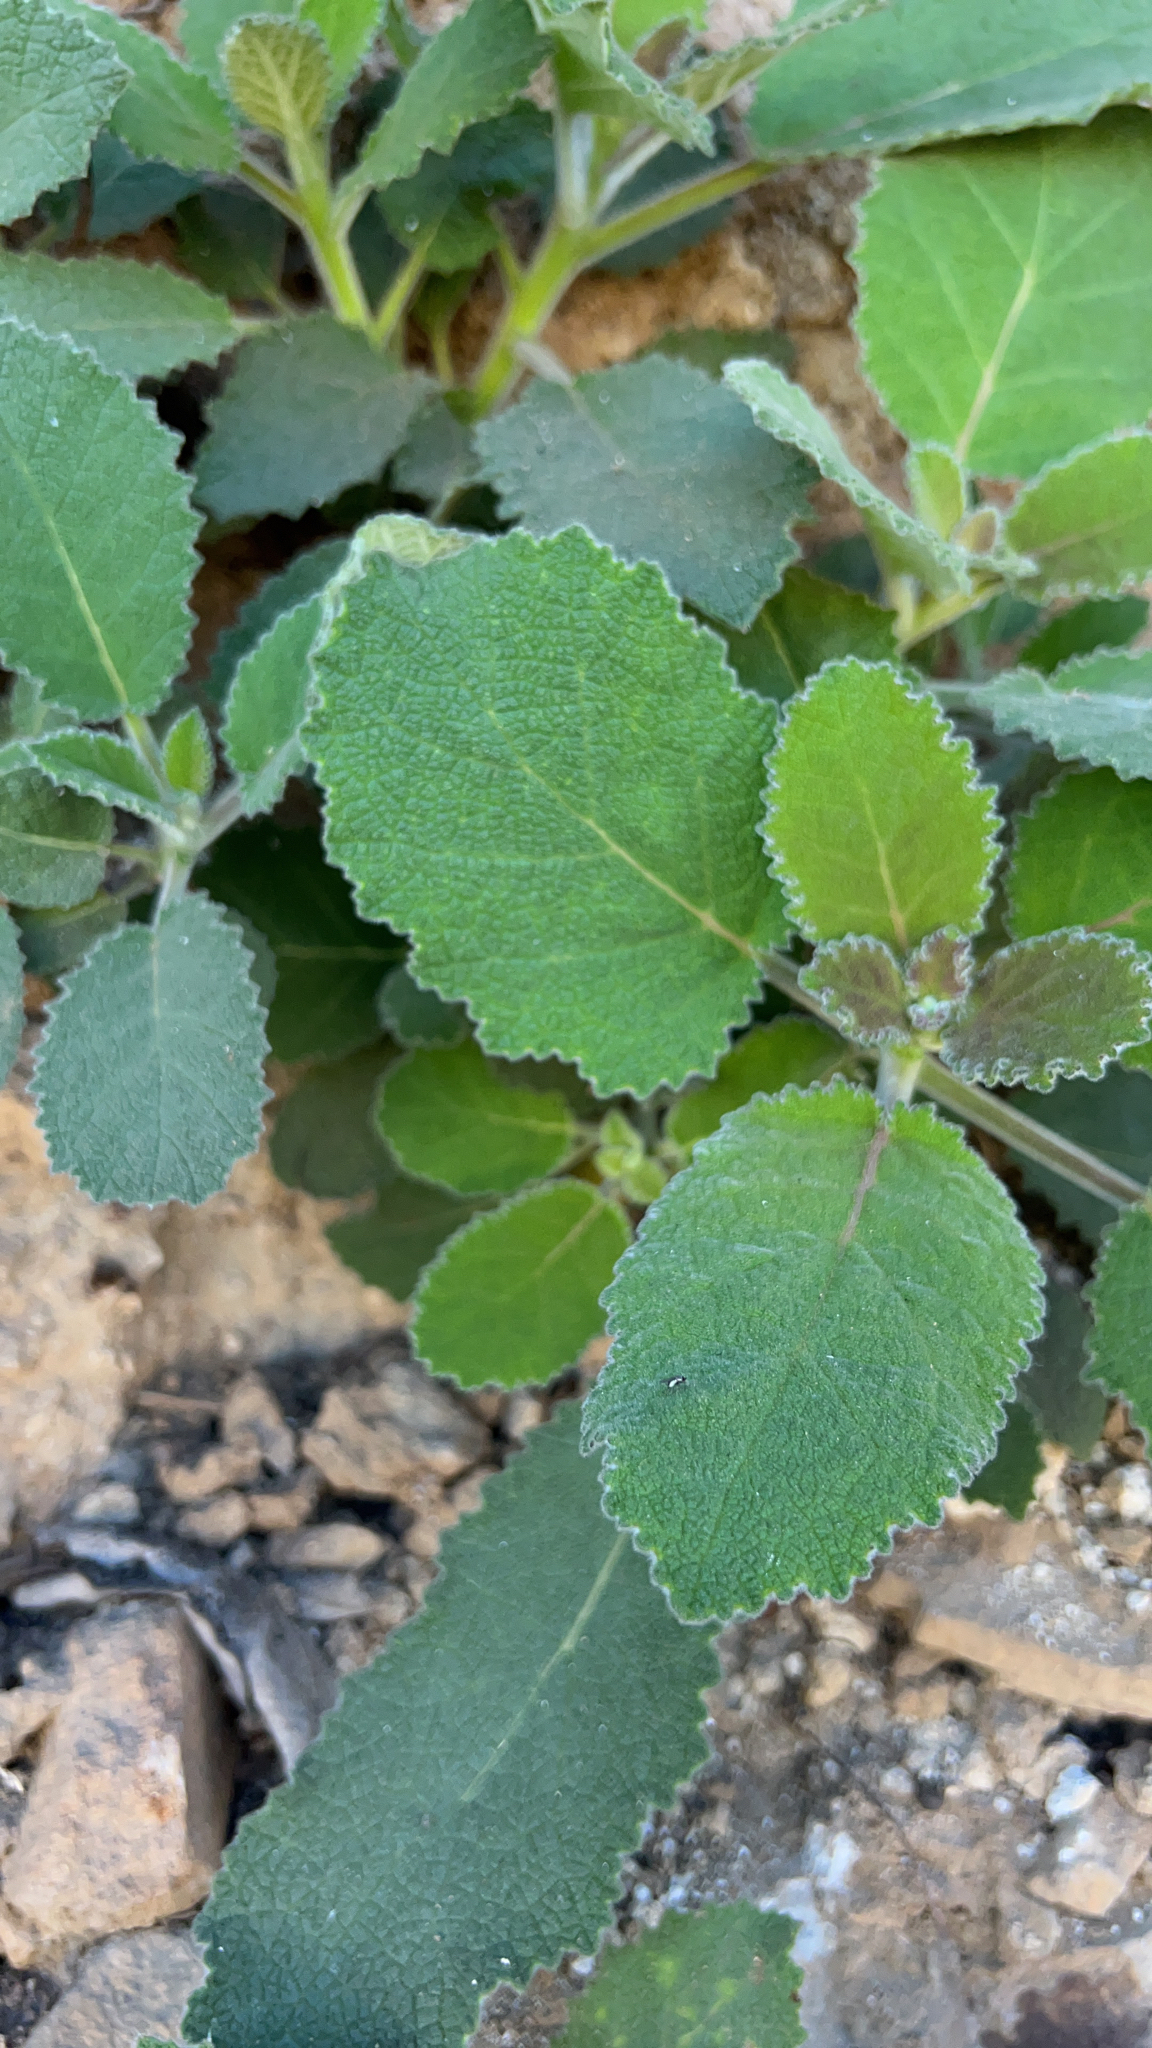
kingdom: Plantae
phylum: Tracheophyta
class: Magnoliopsida
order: Boraginales
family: Namaceae
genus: Wigandia
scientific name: Wigandia urens
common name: Caracus wigandia
